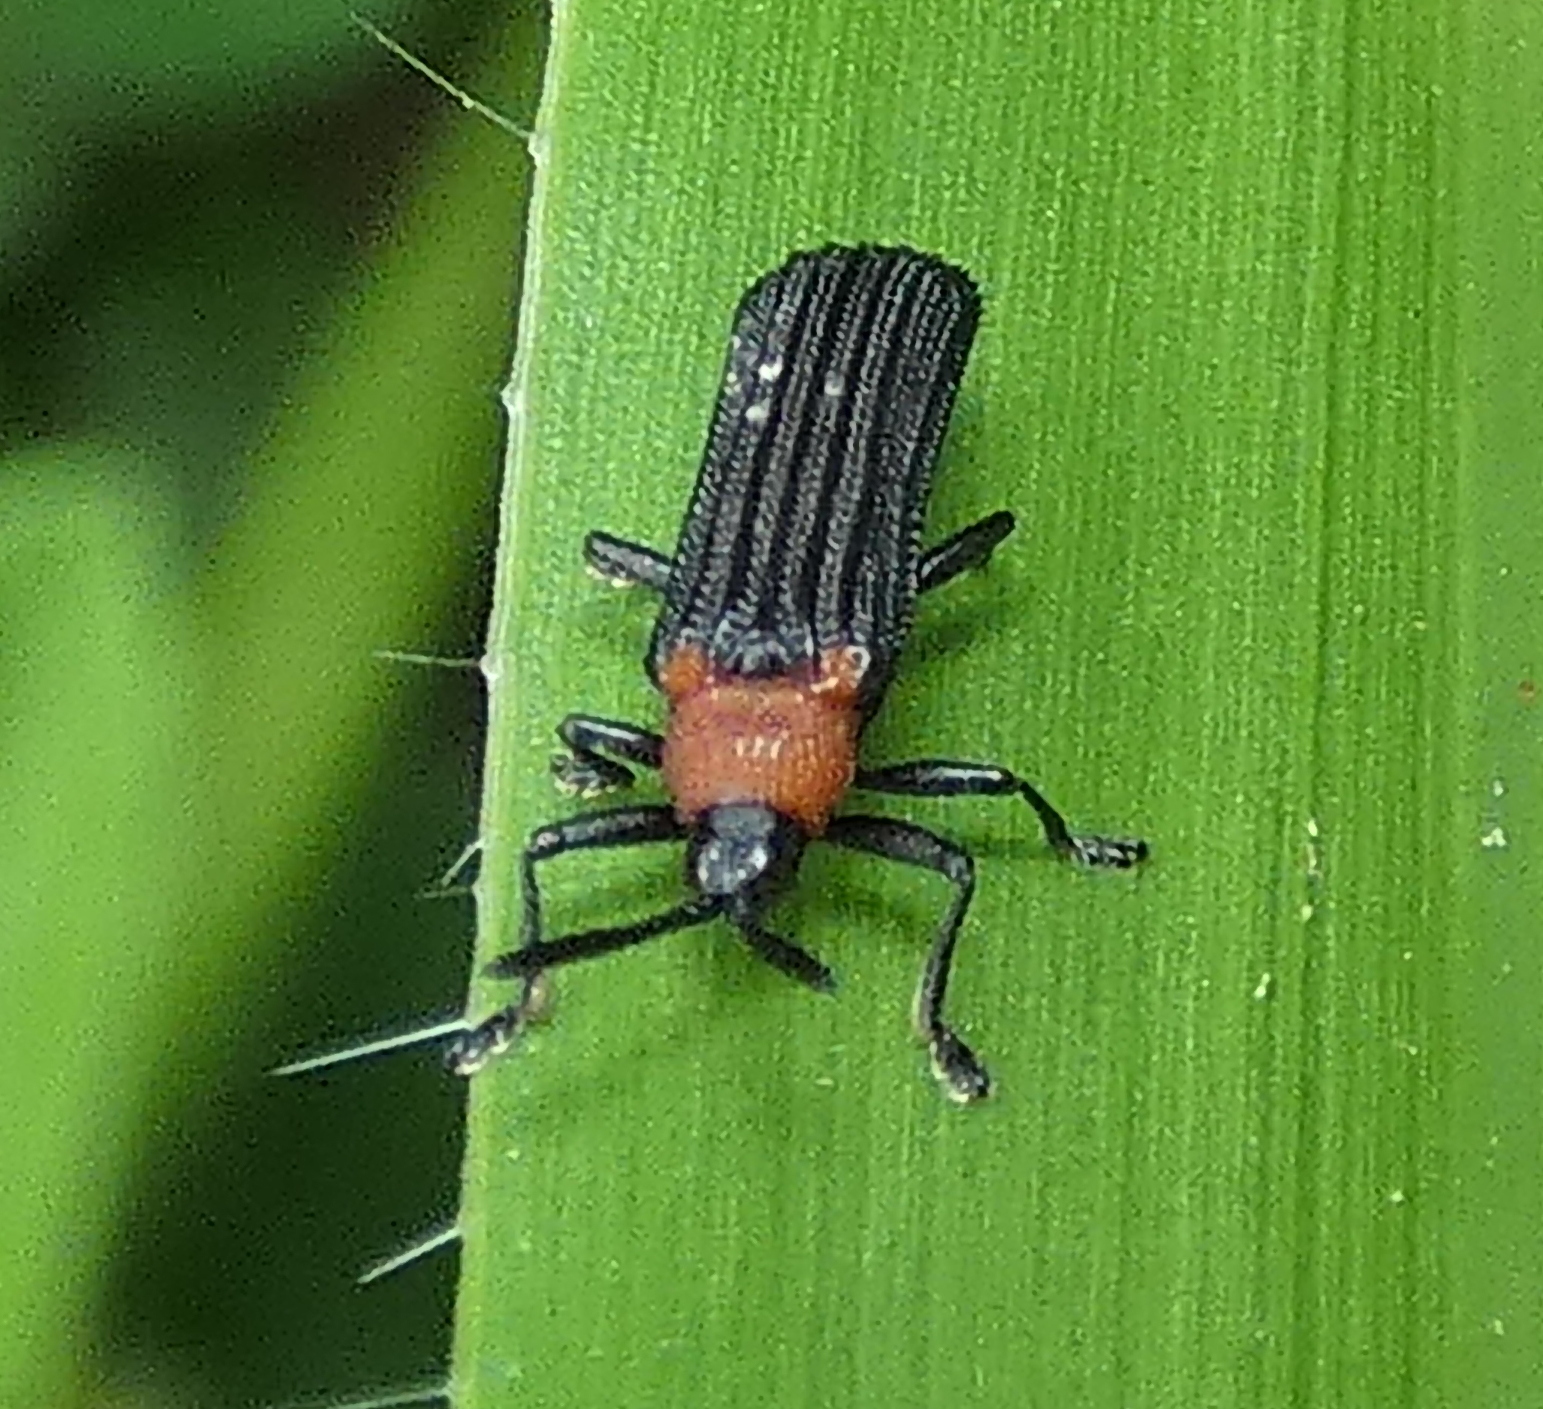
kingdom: Animalia
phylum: Arthropoda
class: Insecta
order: Coleoptera
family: Chrysomelidae
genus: Chalepus
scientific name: Chalepus notula
